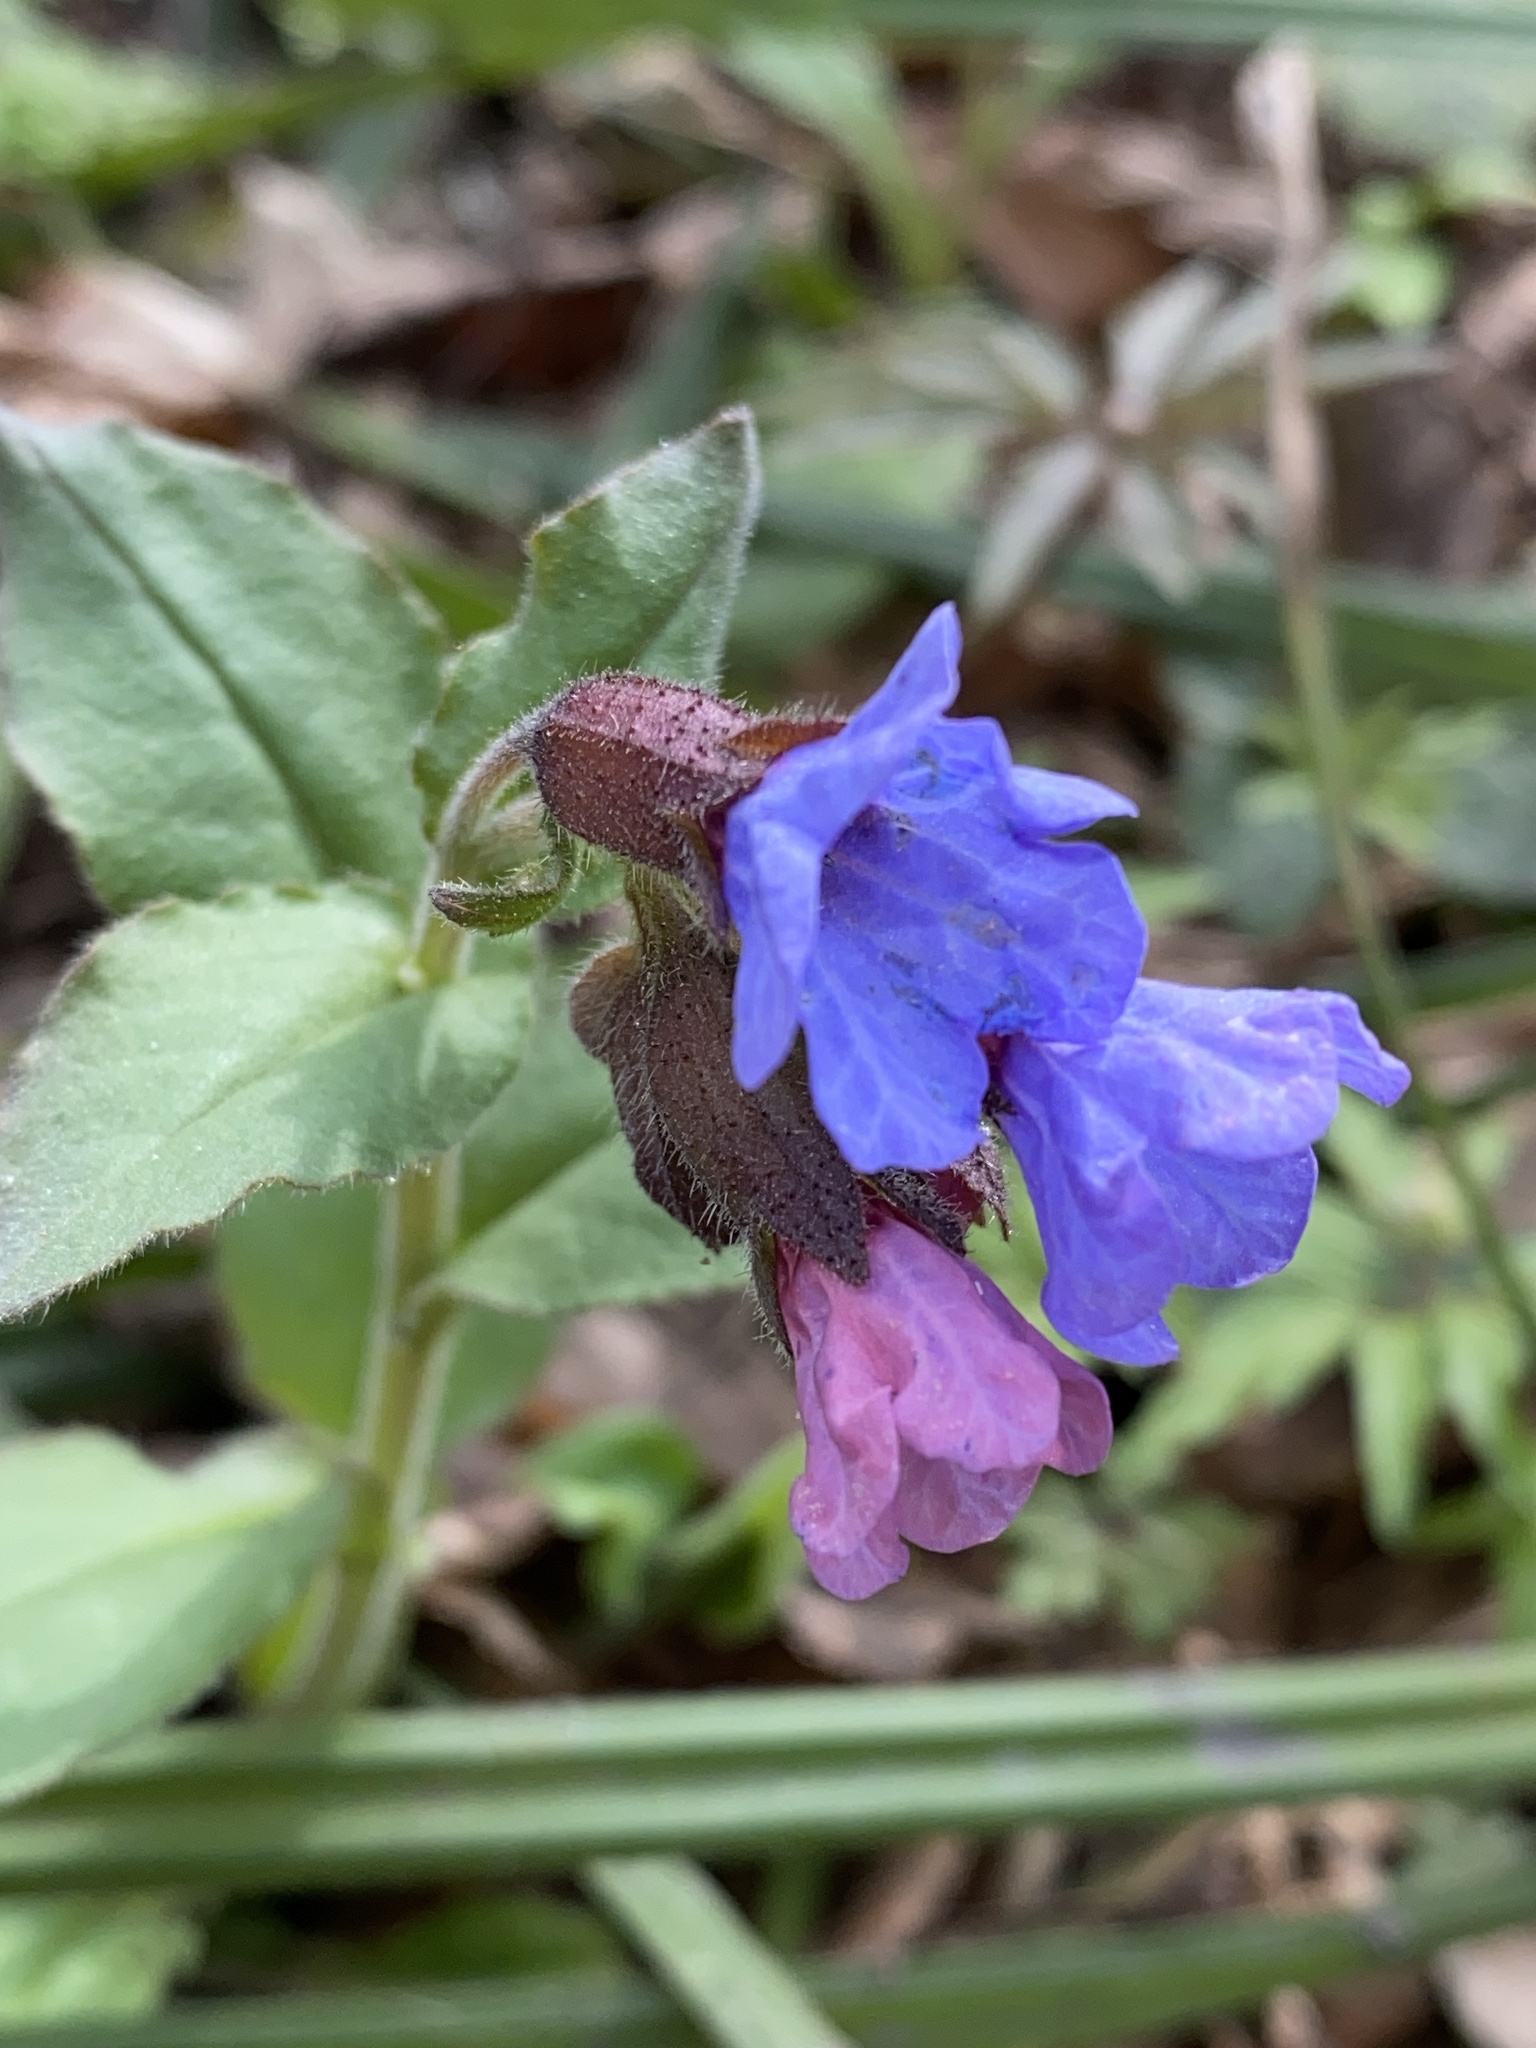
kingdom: Plantae
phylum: Tracheophyta
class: Magnoliopsida
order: Boraginales
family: Boraginaceae
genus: Pulmonaria
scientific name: Pulmonaria obscura
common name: Suffolk lungwort
